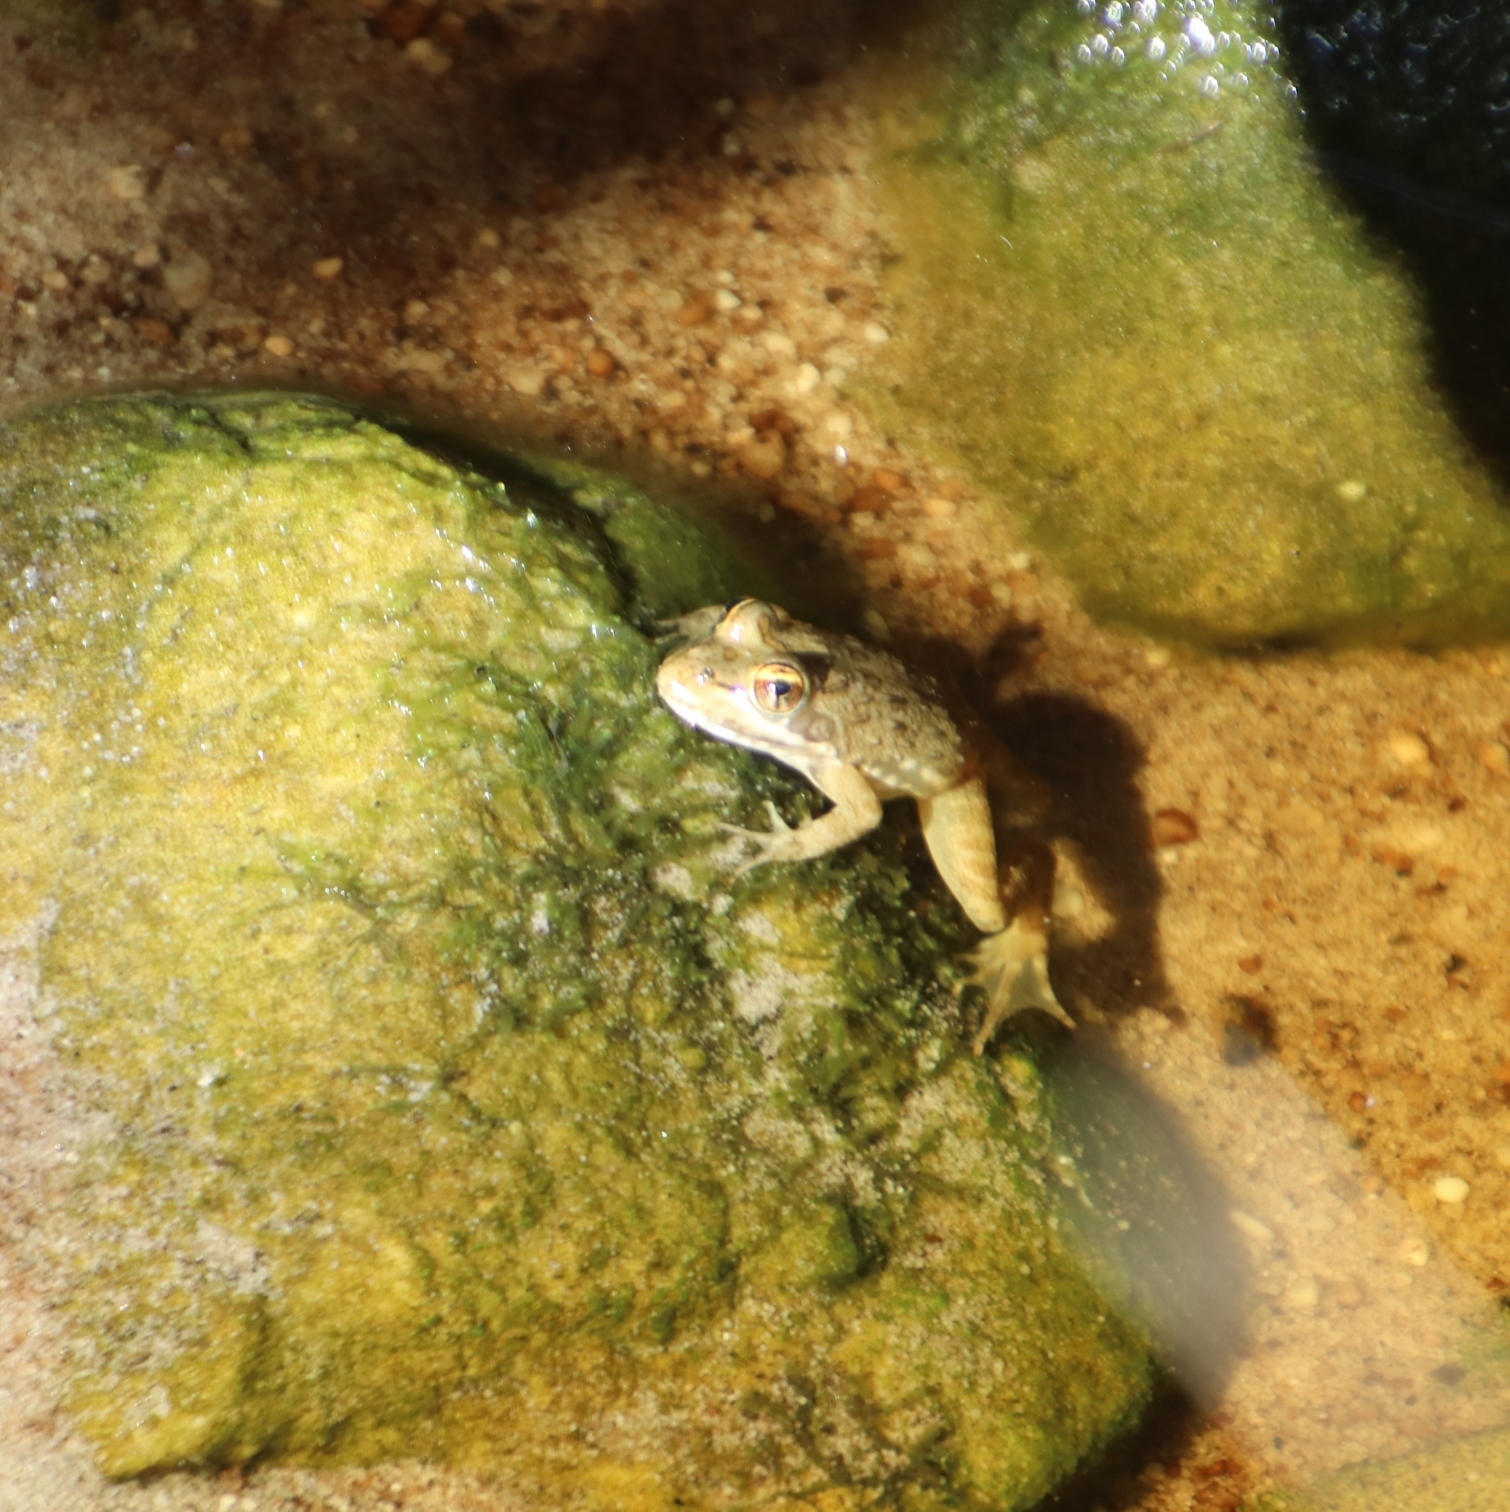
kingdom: Animalia
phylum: Chordata
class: Amphibia
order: Anura
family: Pyxicephalidae
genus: Amietia
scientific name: Amietia fuscigula
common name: Cape rana
